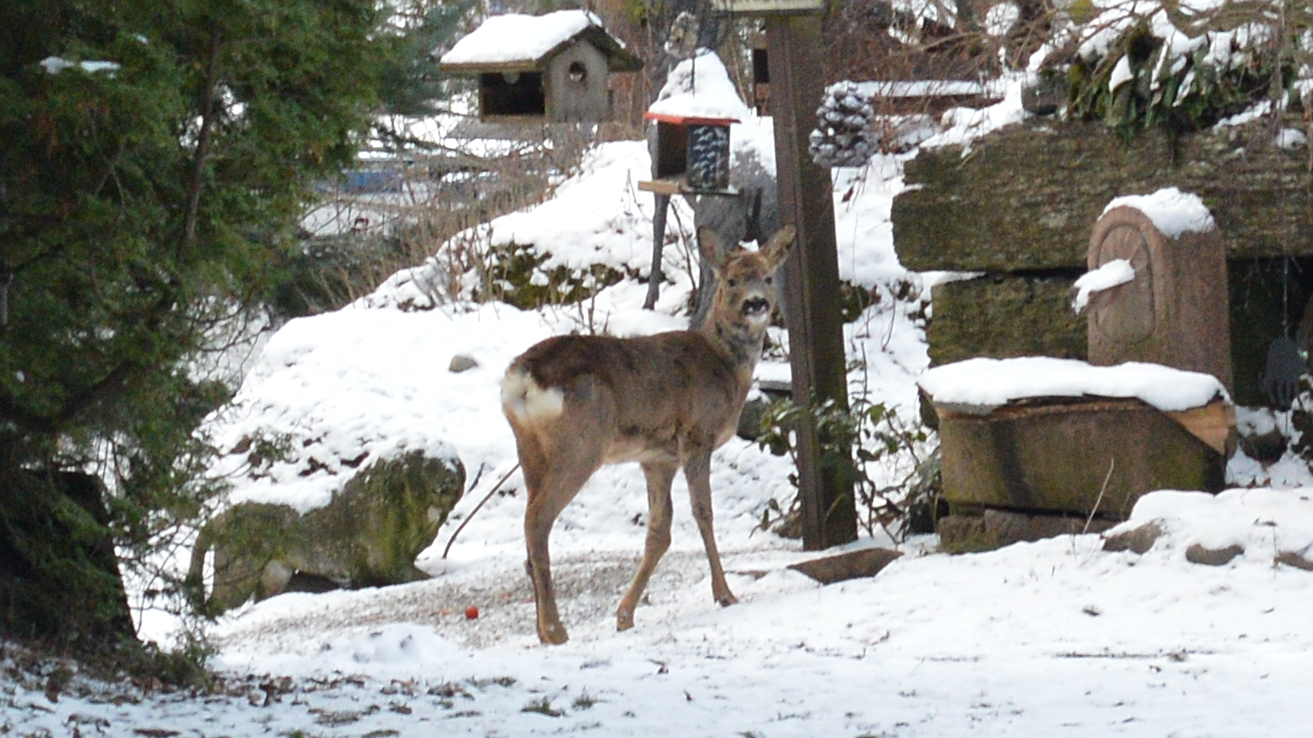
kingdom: Animalia
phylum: Chordata
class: Mammalia
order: Artiodactyla
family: Cervidae
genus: Capreolus
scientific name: Capreolus capreolus
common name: Western roe deer
